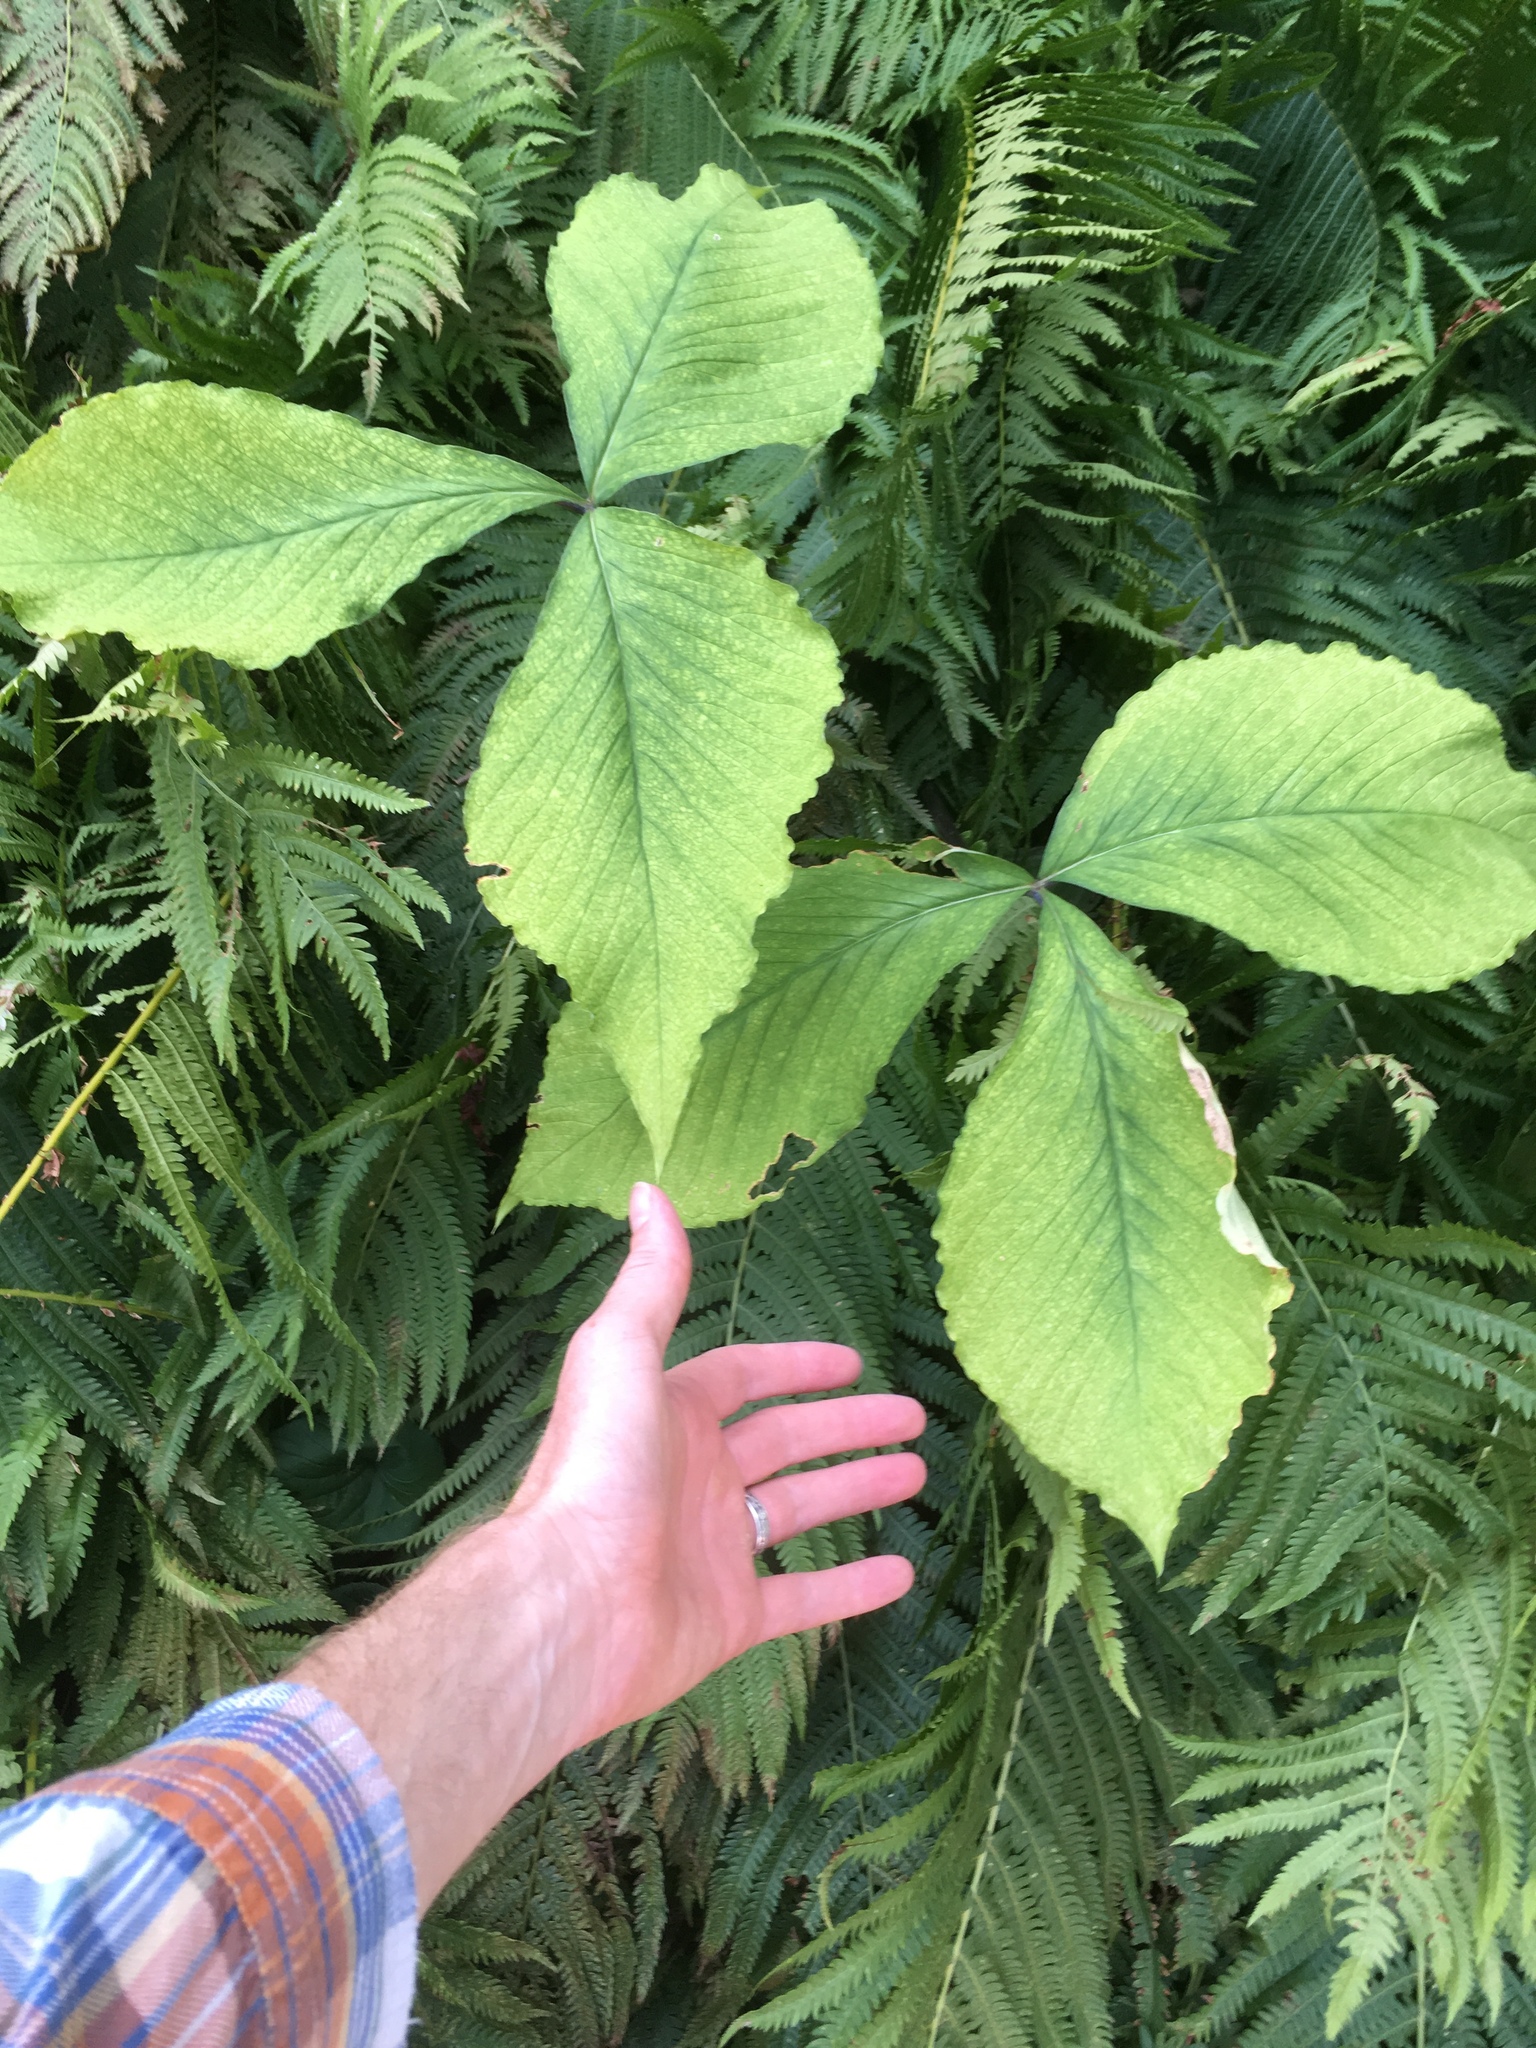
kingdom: Plantae
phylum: Tracheophyta
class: Liliopsida
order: Alismatales
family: Araceae
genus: Arisaema
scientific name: Arisaema triphyllum
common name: Jack-in-the-pulpit
